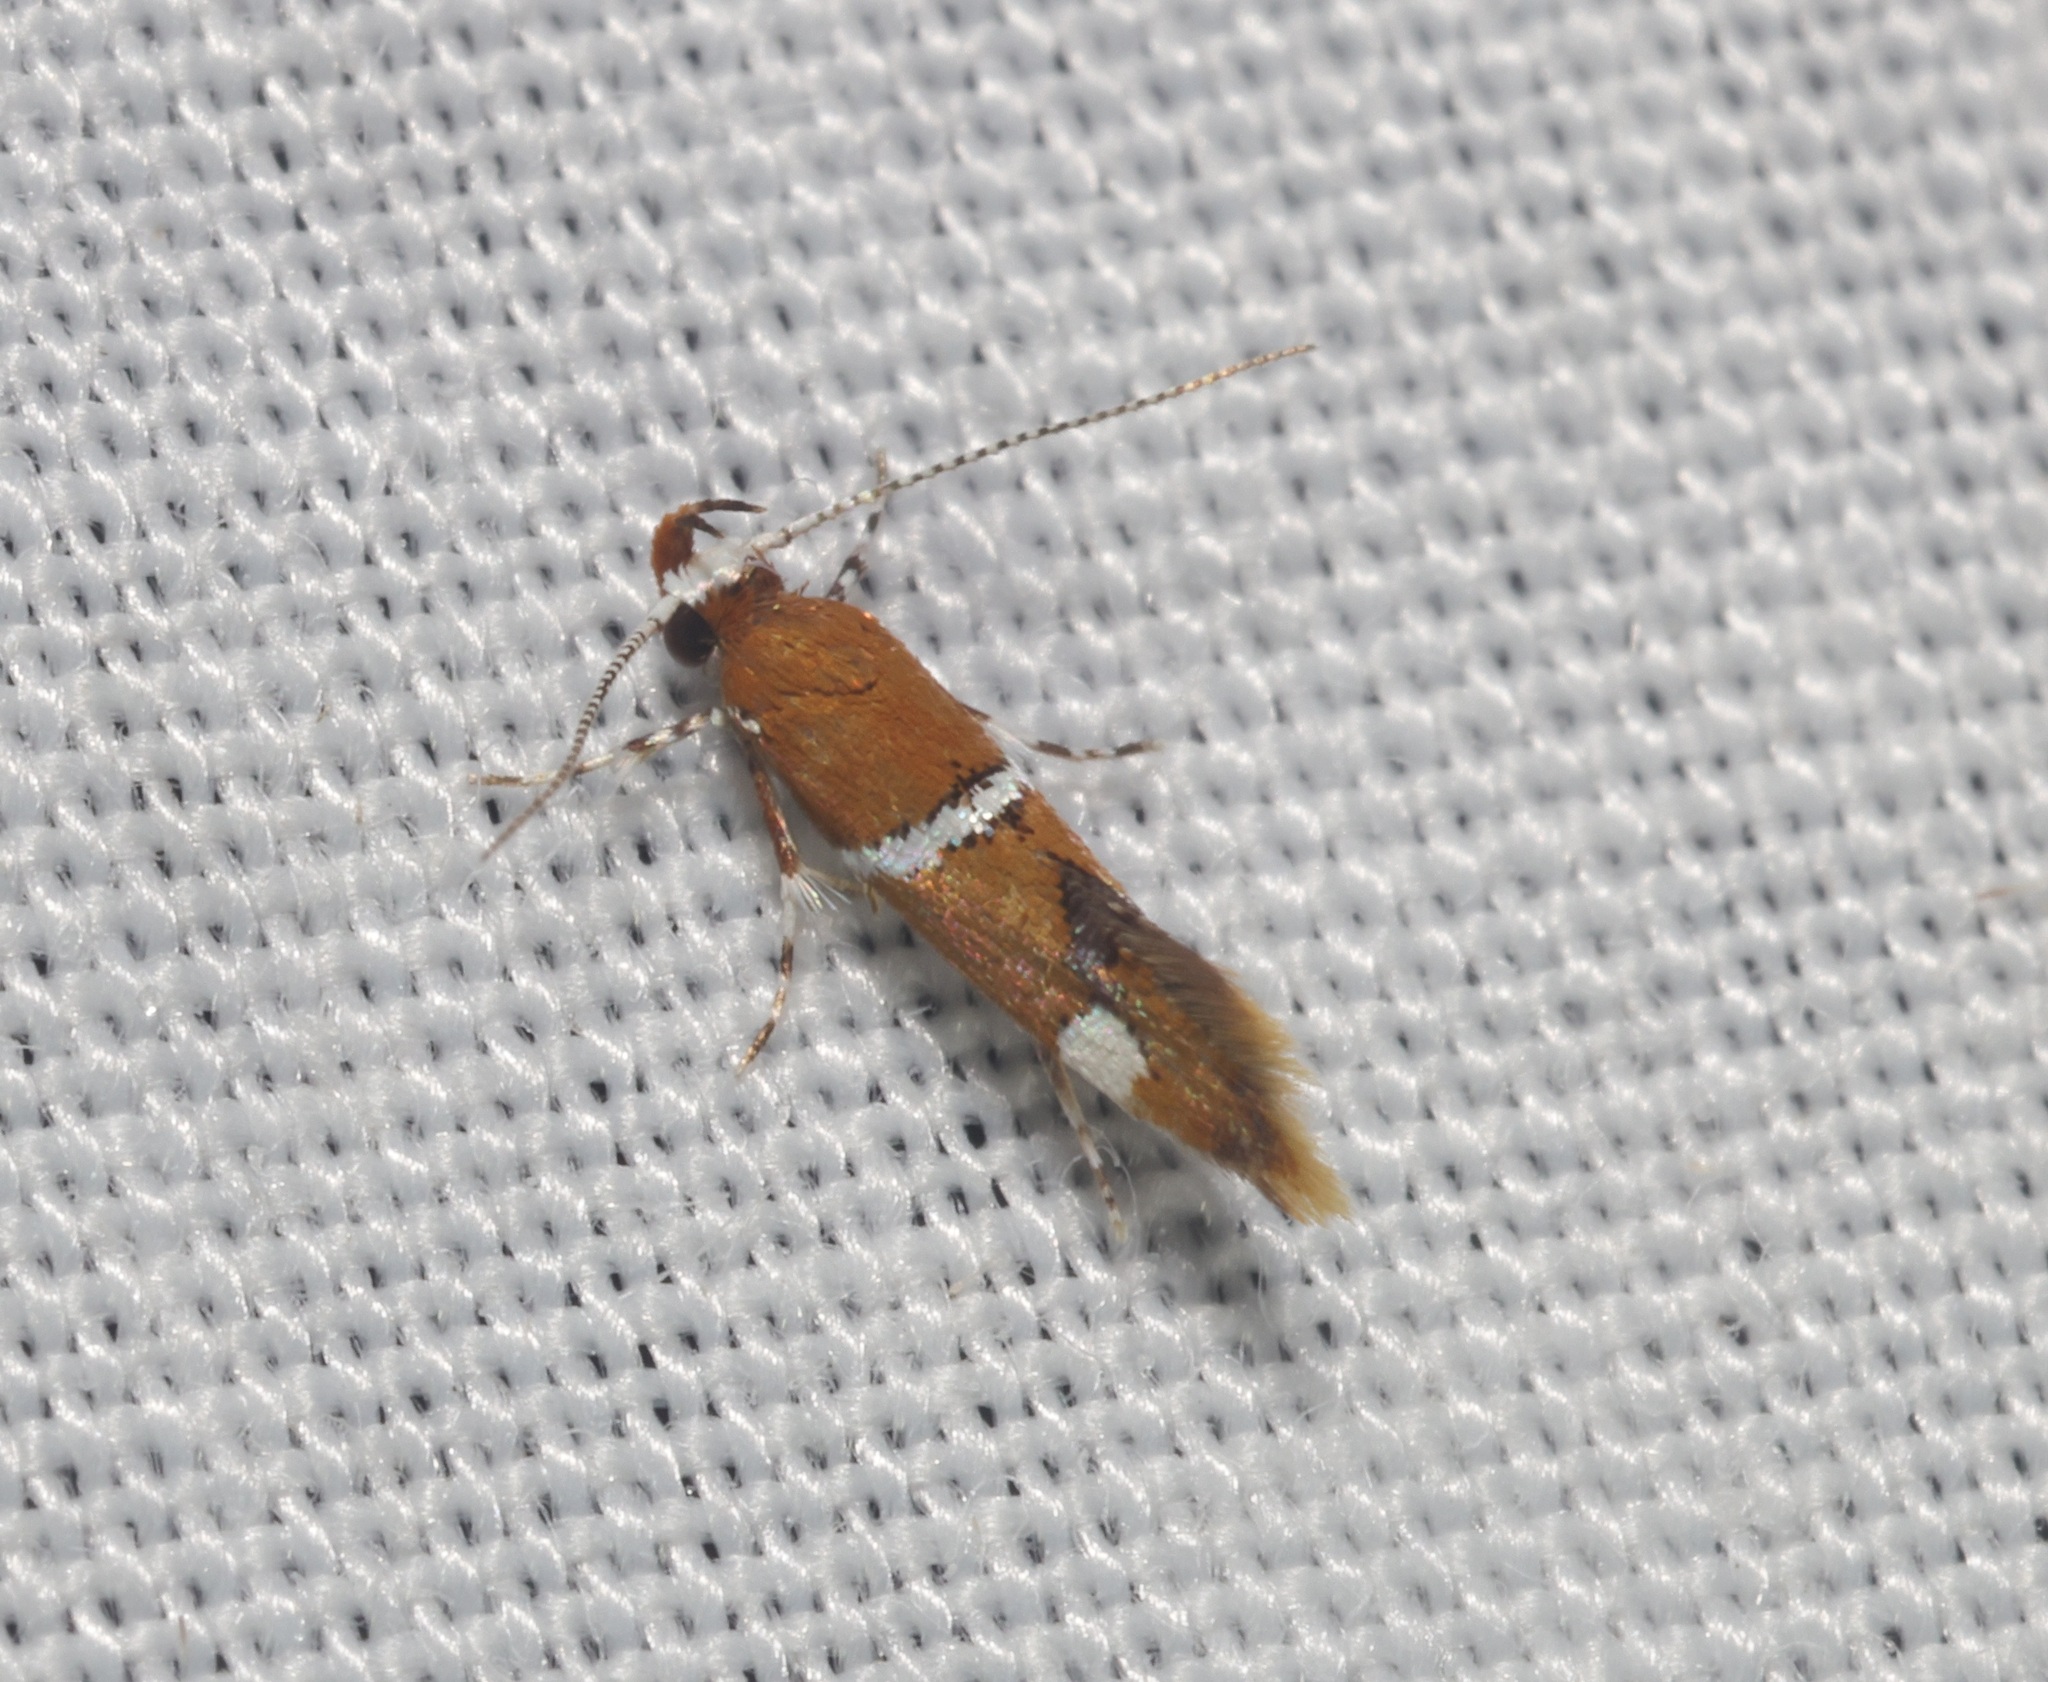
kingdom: Animalia
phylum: Arthropoda
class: Insecta
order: Lepidoptera
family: Oecophoridae
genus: Promalactis
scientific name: Promalactis albisquama
